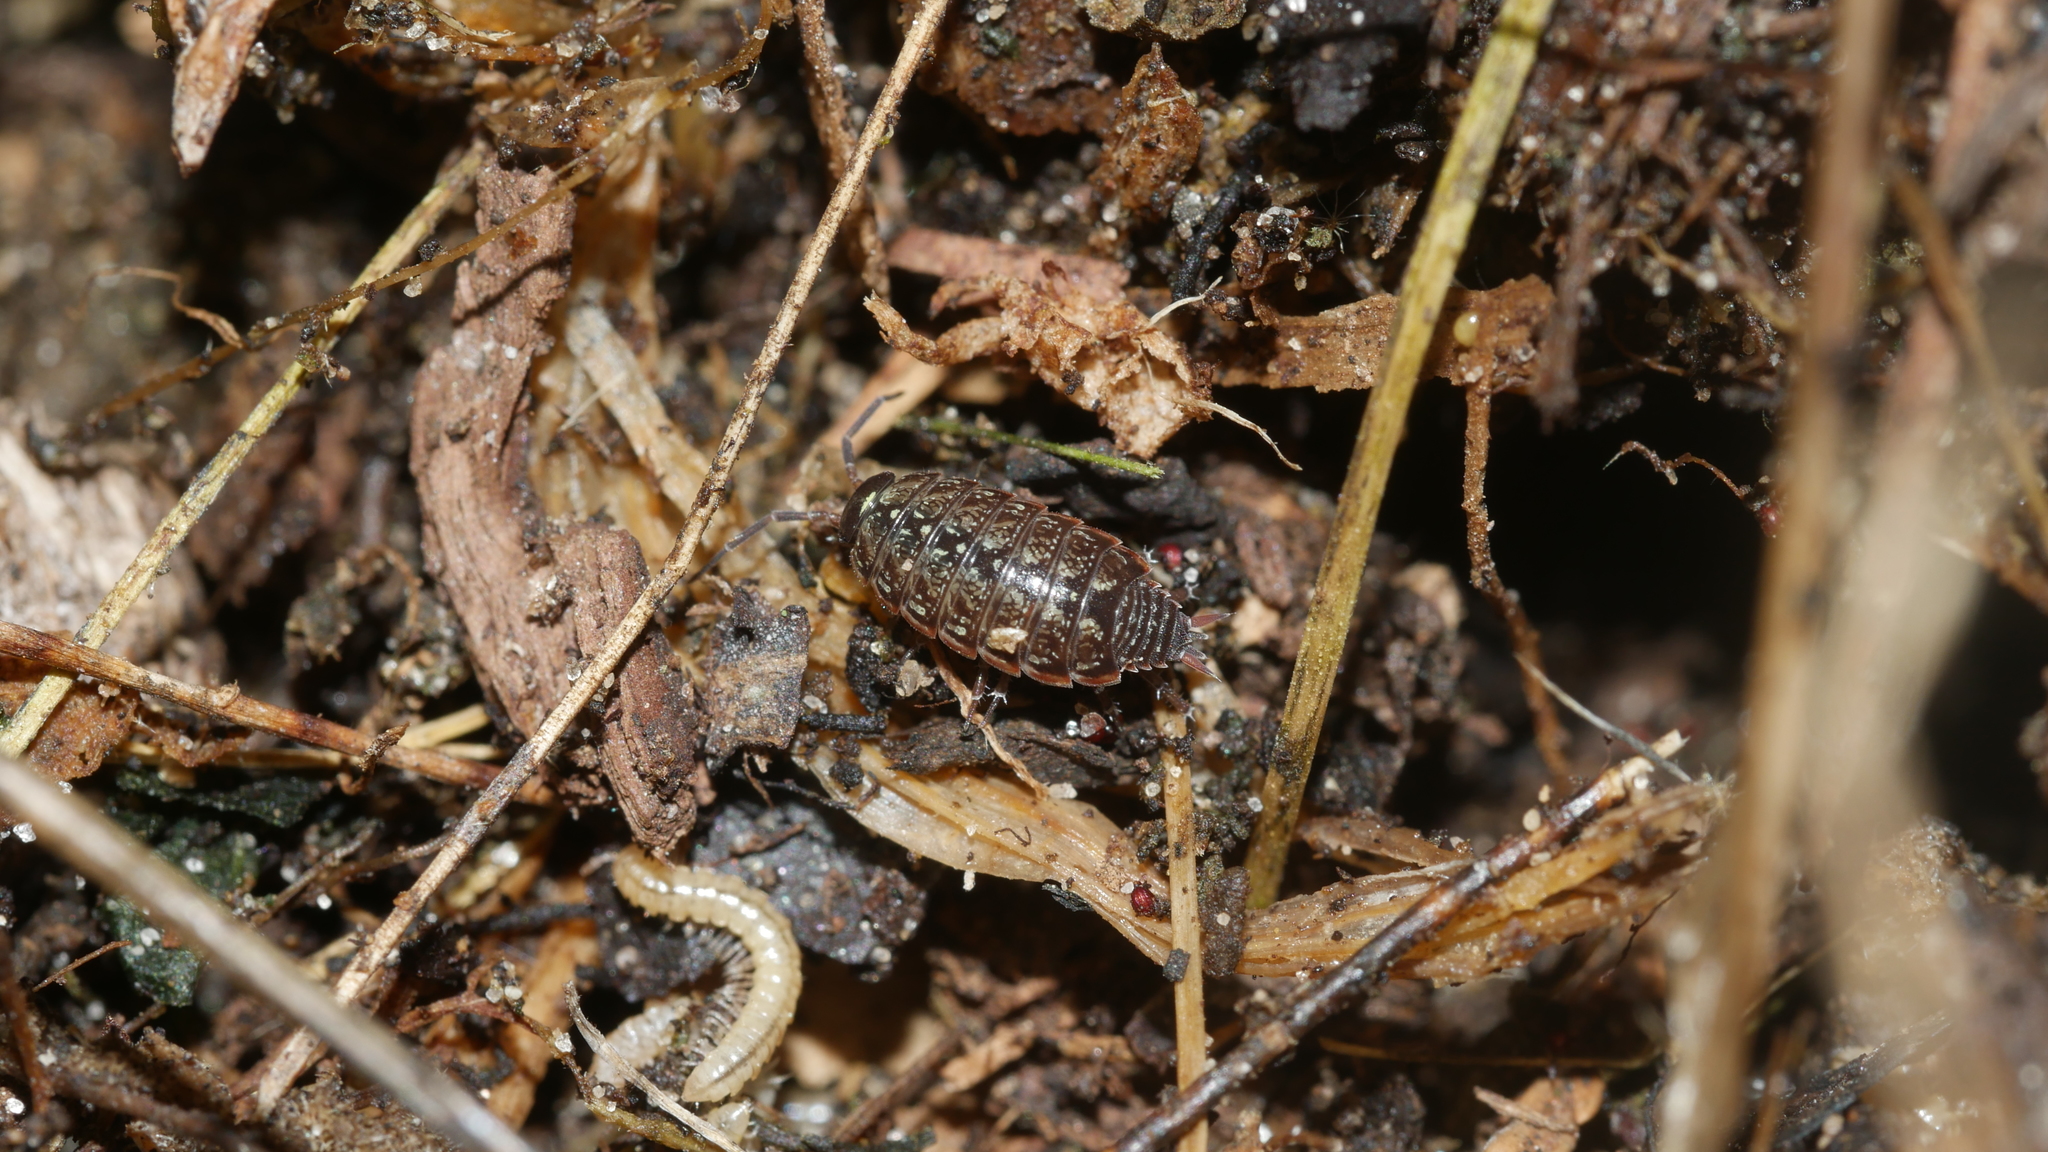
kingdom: Animalia
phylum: Arthropoda
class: Malacostraca
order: Isopoda
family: Philosciidae
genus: Philoscia
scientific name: Philoscia muscorum
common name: Common striped woodlouse
